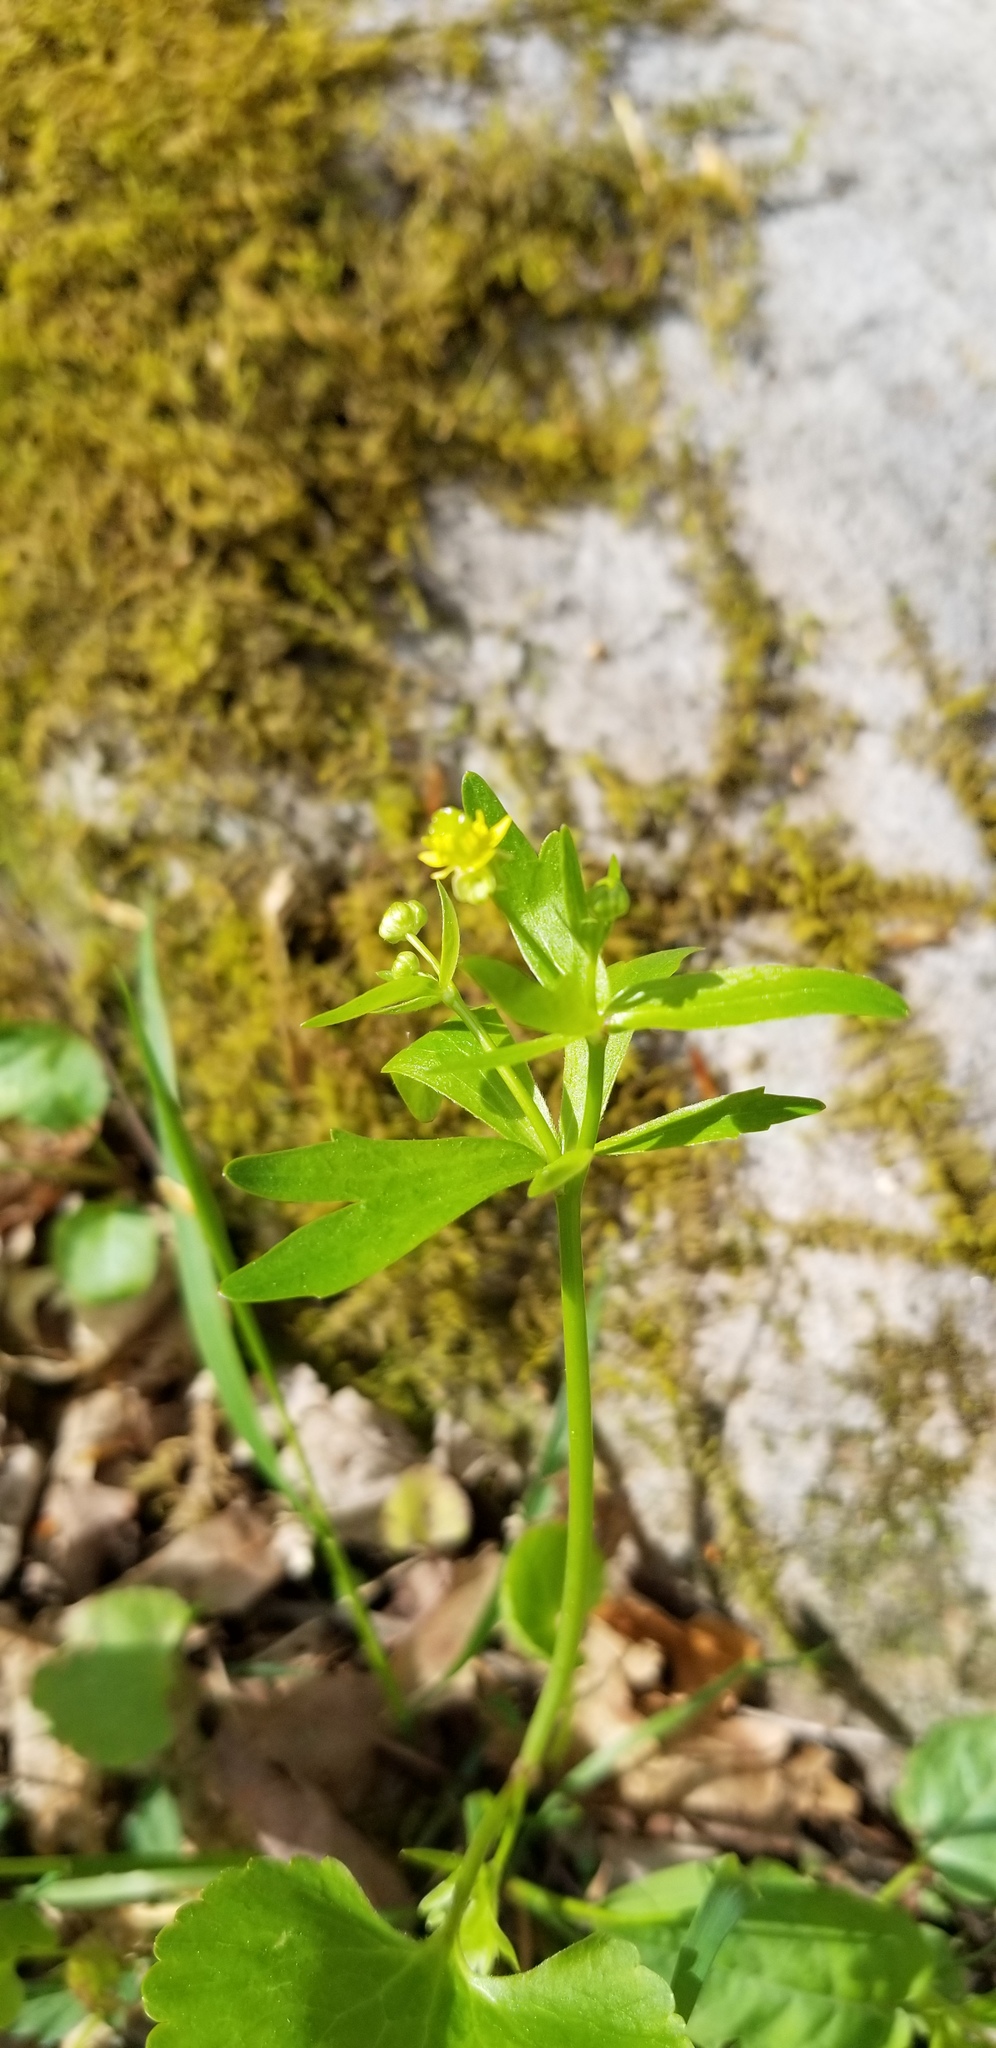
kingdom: Plantae
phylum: Tracheophyta
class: Magnoliopsida
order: Ranunculales
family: Ranunculaceae
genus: Ranunculus
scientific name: Ranunculus abortivus
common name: Early wood buttercup
